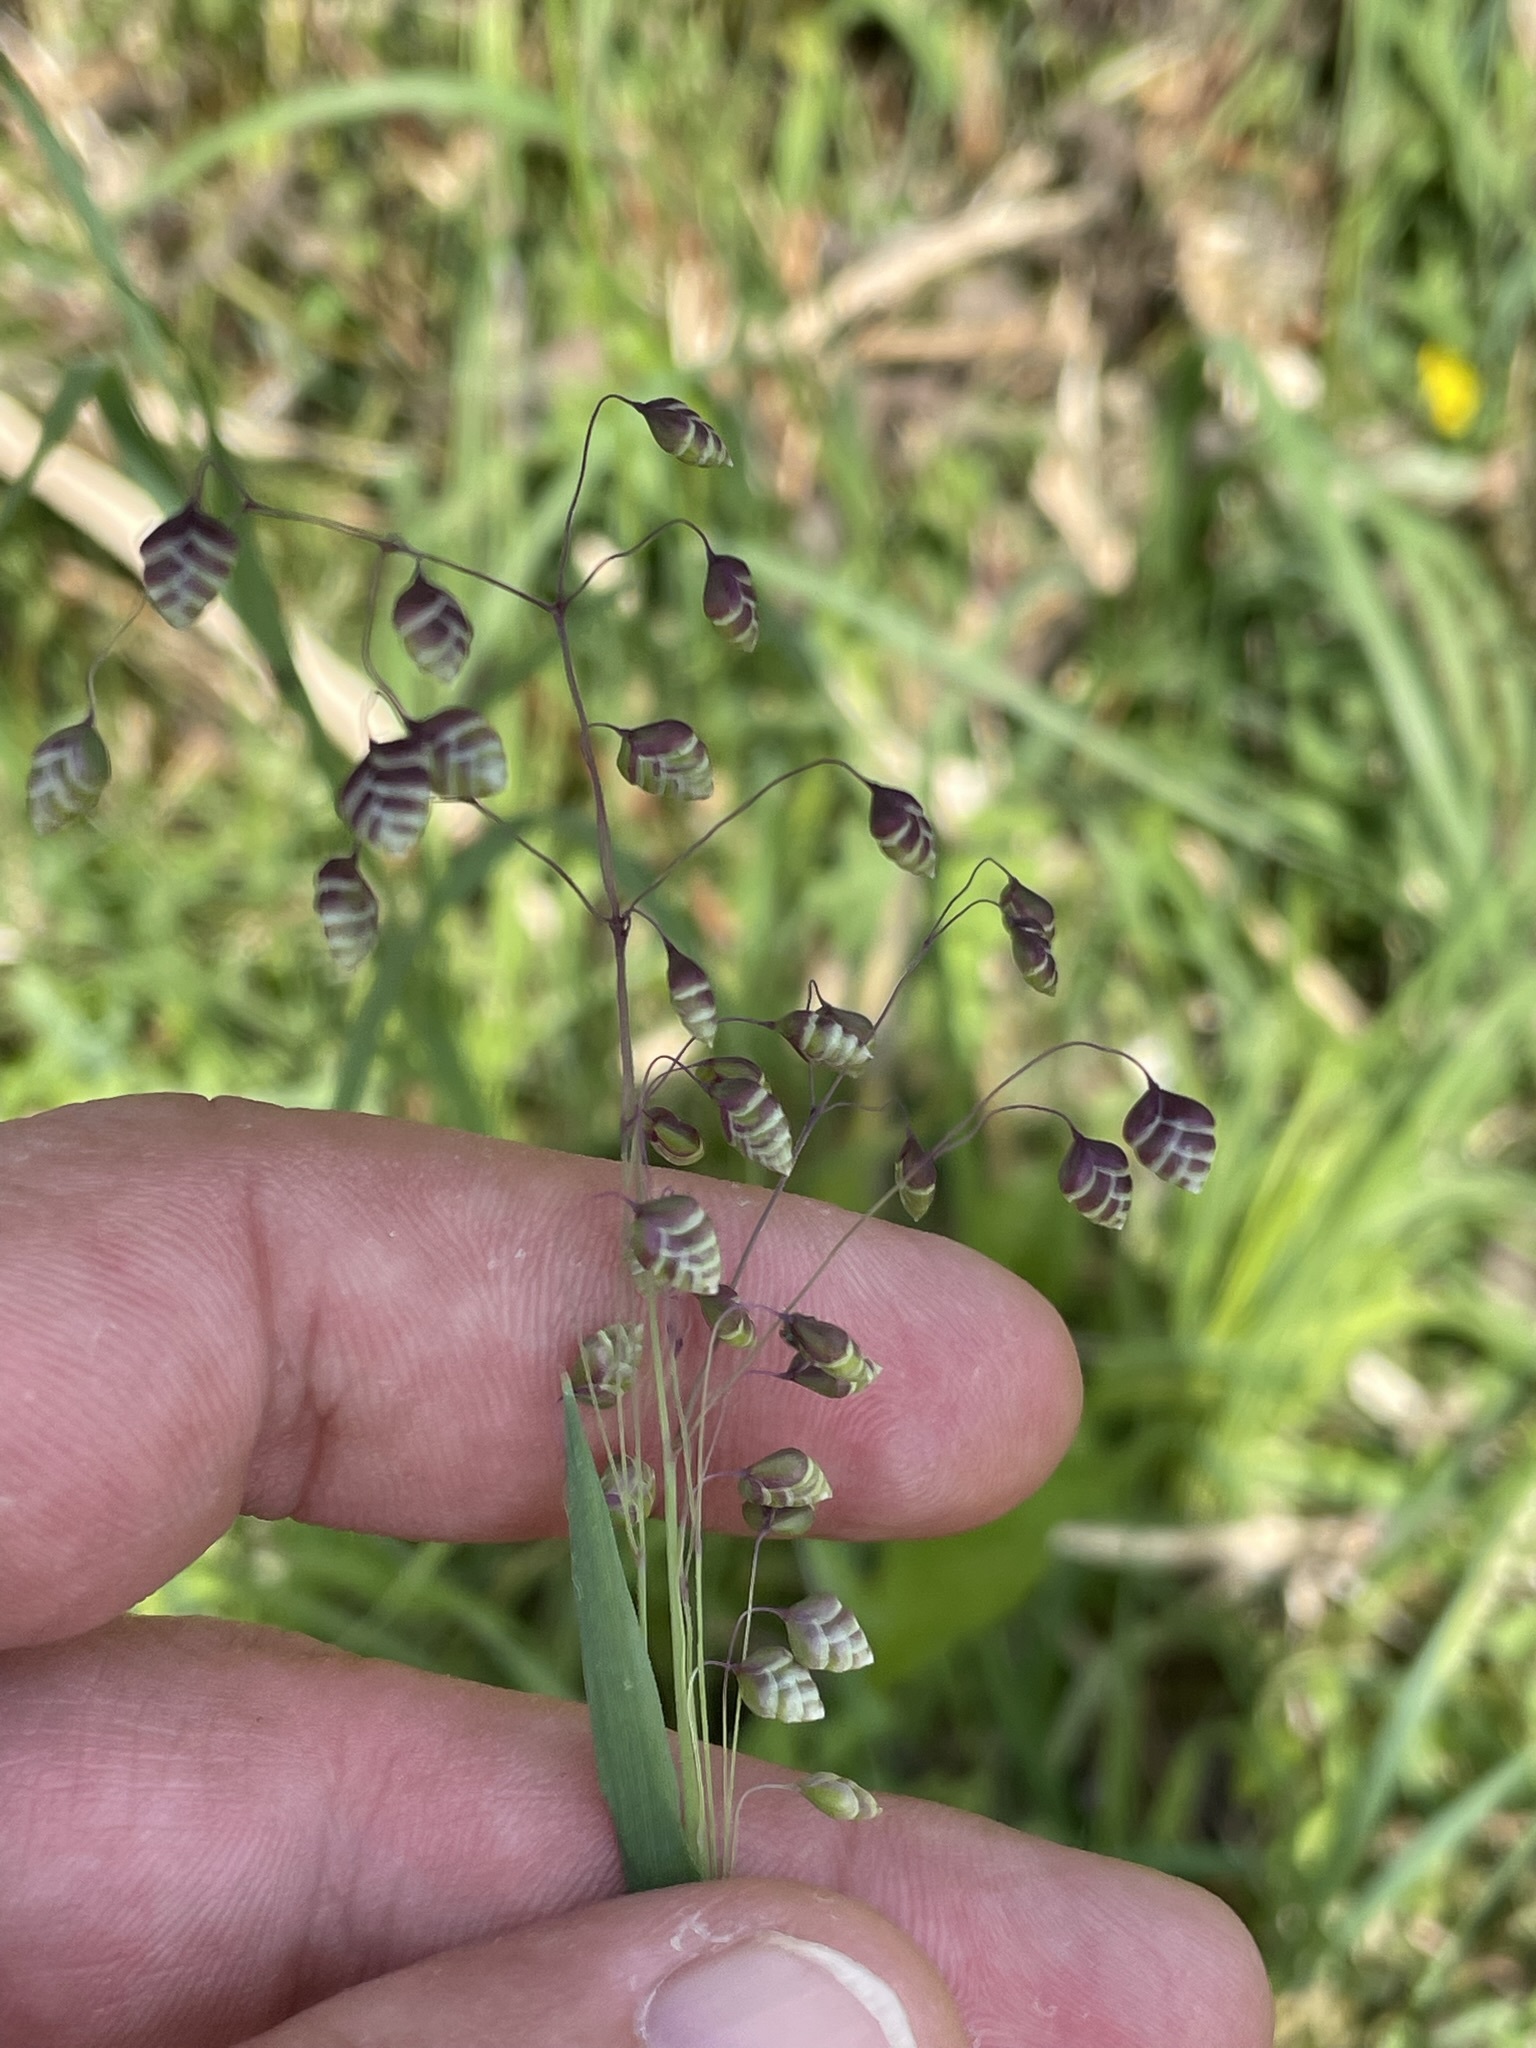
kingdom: Plantae
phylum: Tracheophyta
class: Liliopsida
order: Poales
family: Poaceae
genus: Briza
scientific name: Briza media
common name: Quaking grass
